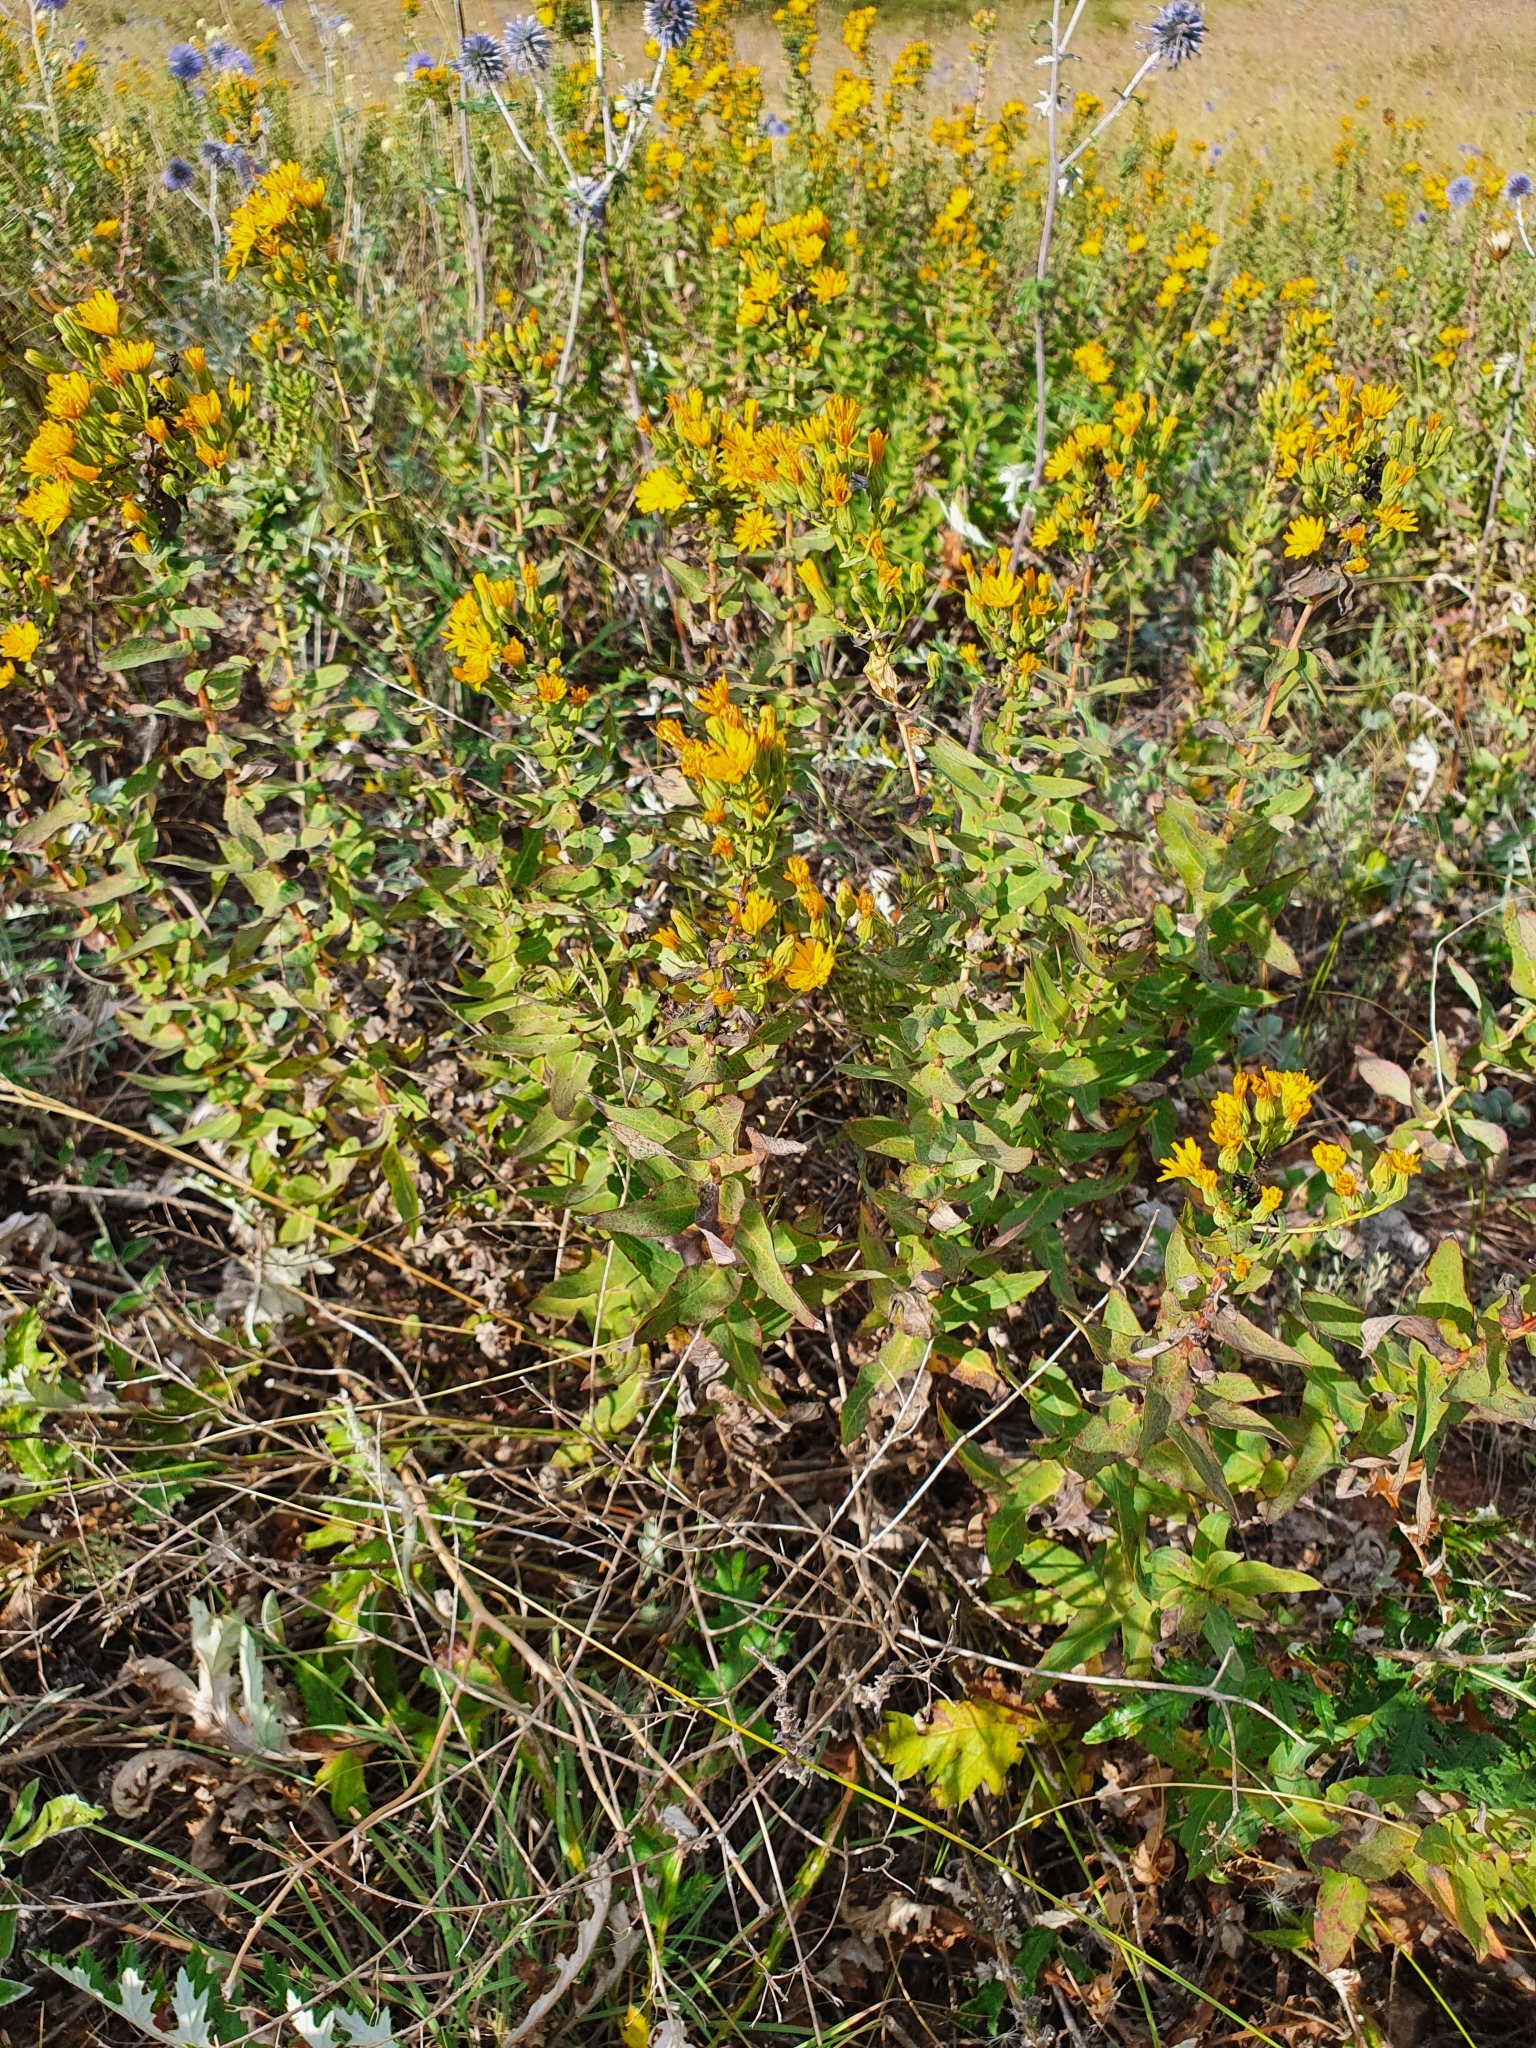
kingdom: Plantae
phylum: Tracheophyta
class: Magnoliopsida
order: Asterales
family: Asteraceae
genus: Hieracium
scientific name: Hieracium virosum
